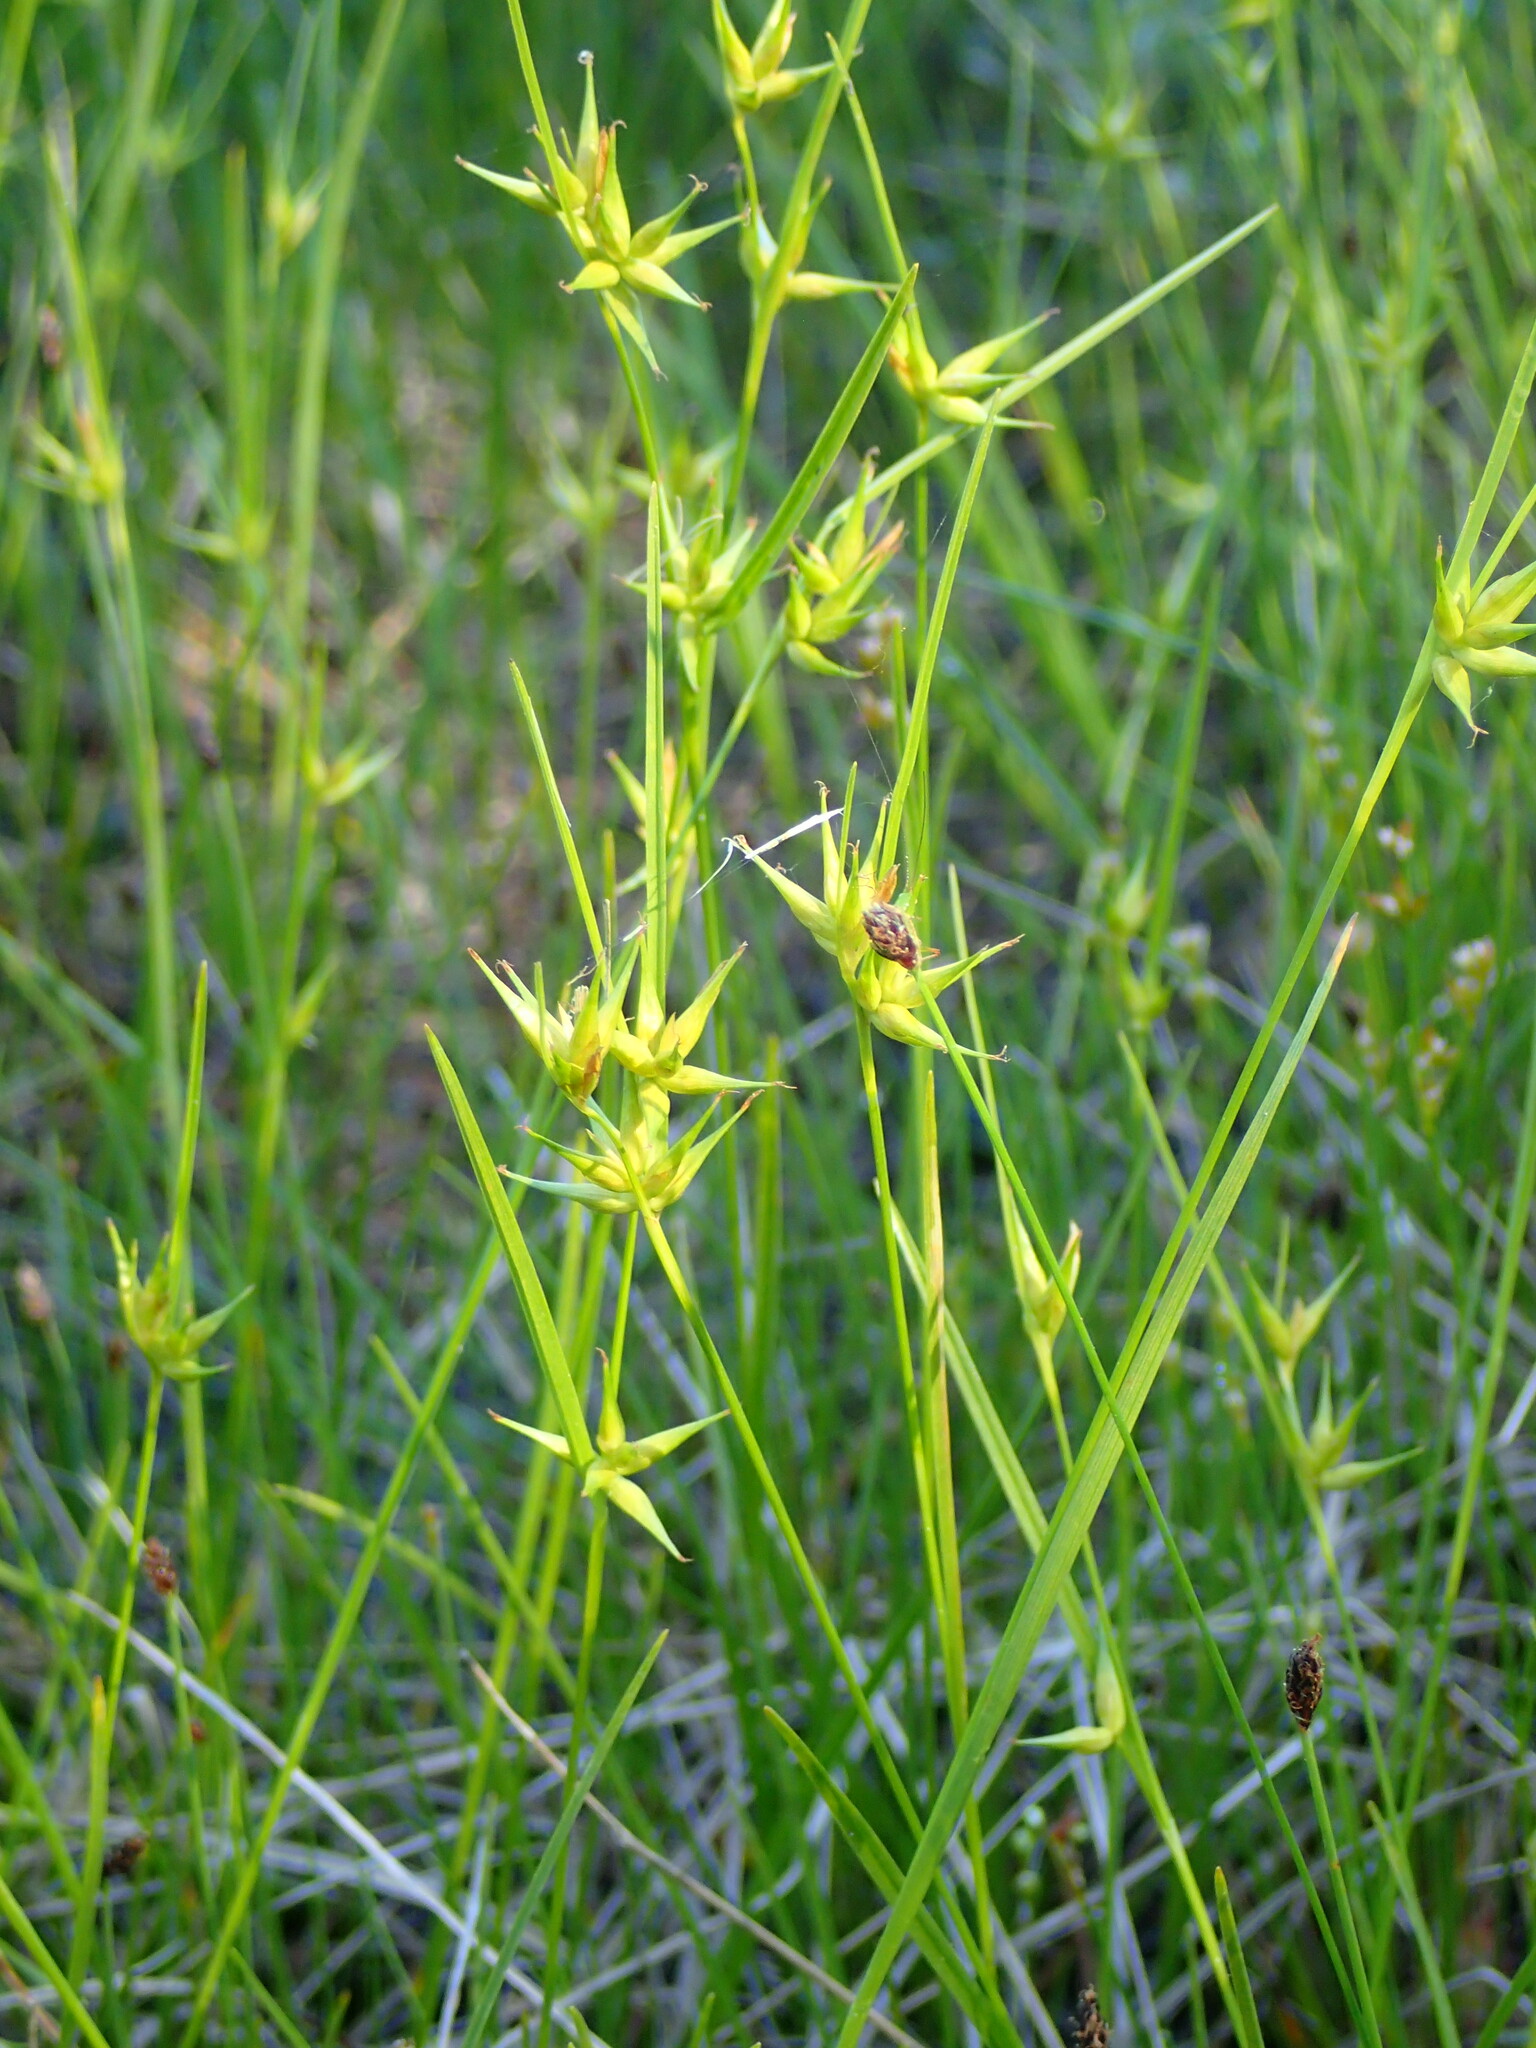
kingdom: Plantae
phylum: Tracheophyta
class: Liliopsida
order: Poales
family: Cyperaceae
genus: Carex
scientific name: Carex michauxiana
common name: Michaux's sedge
